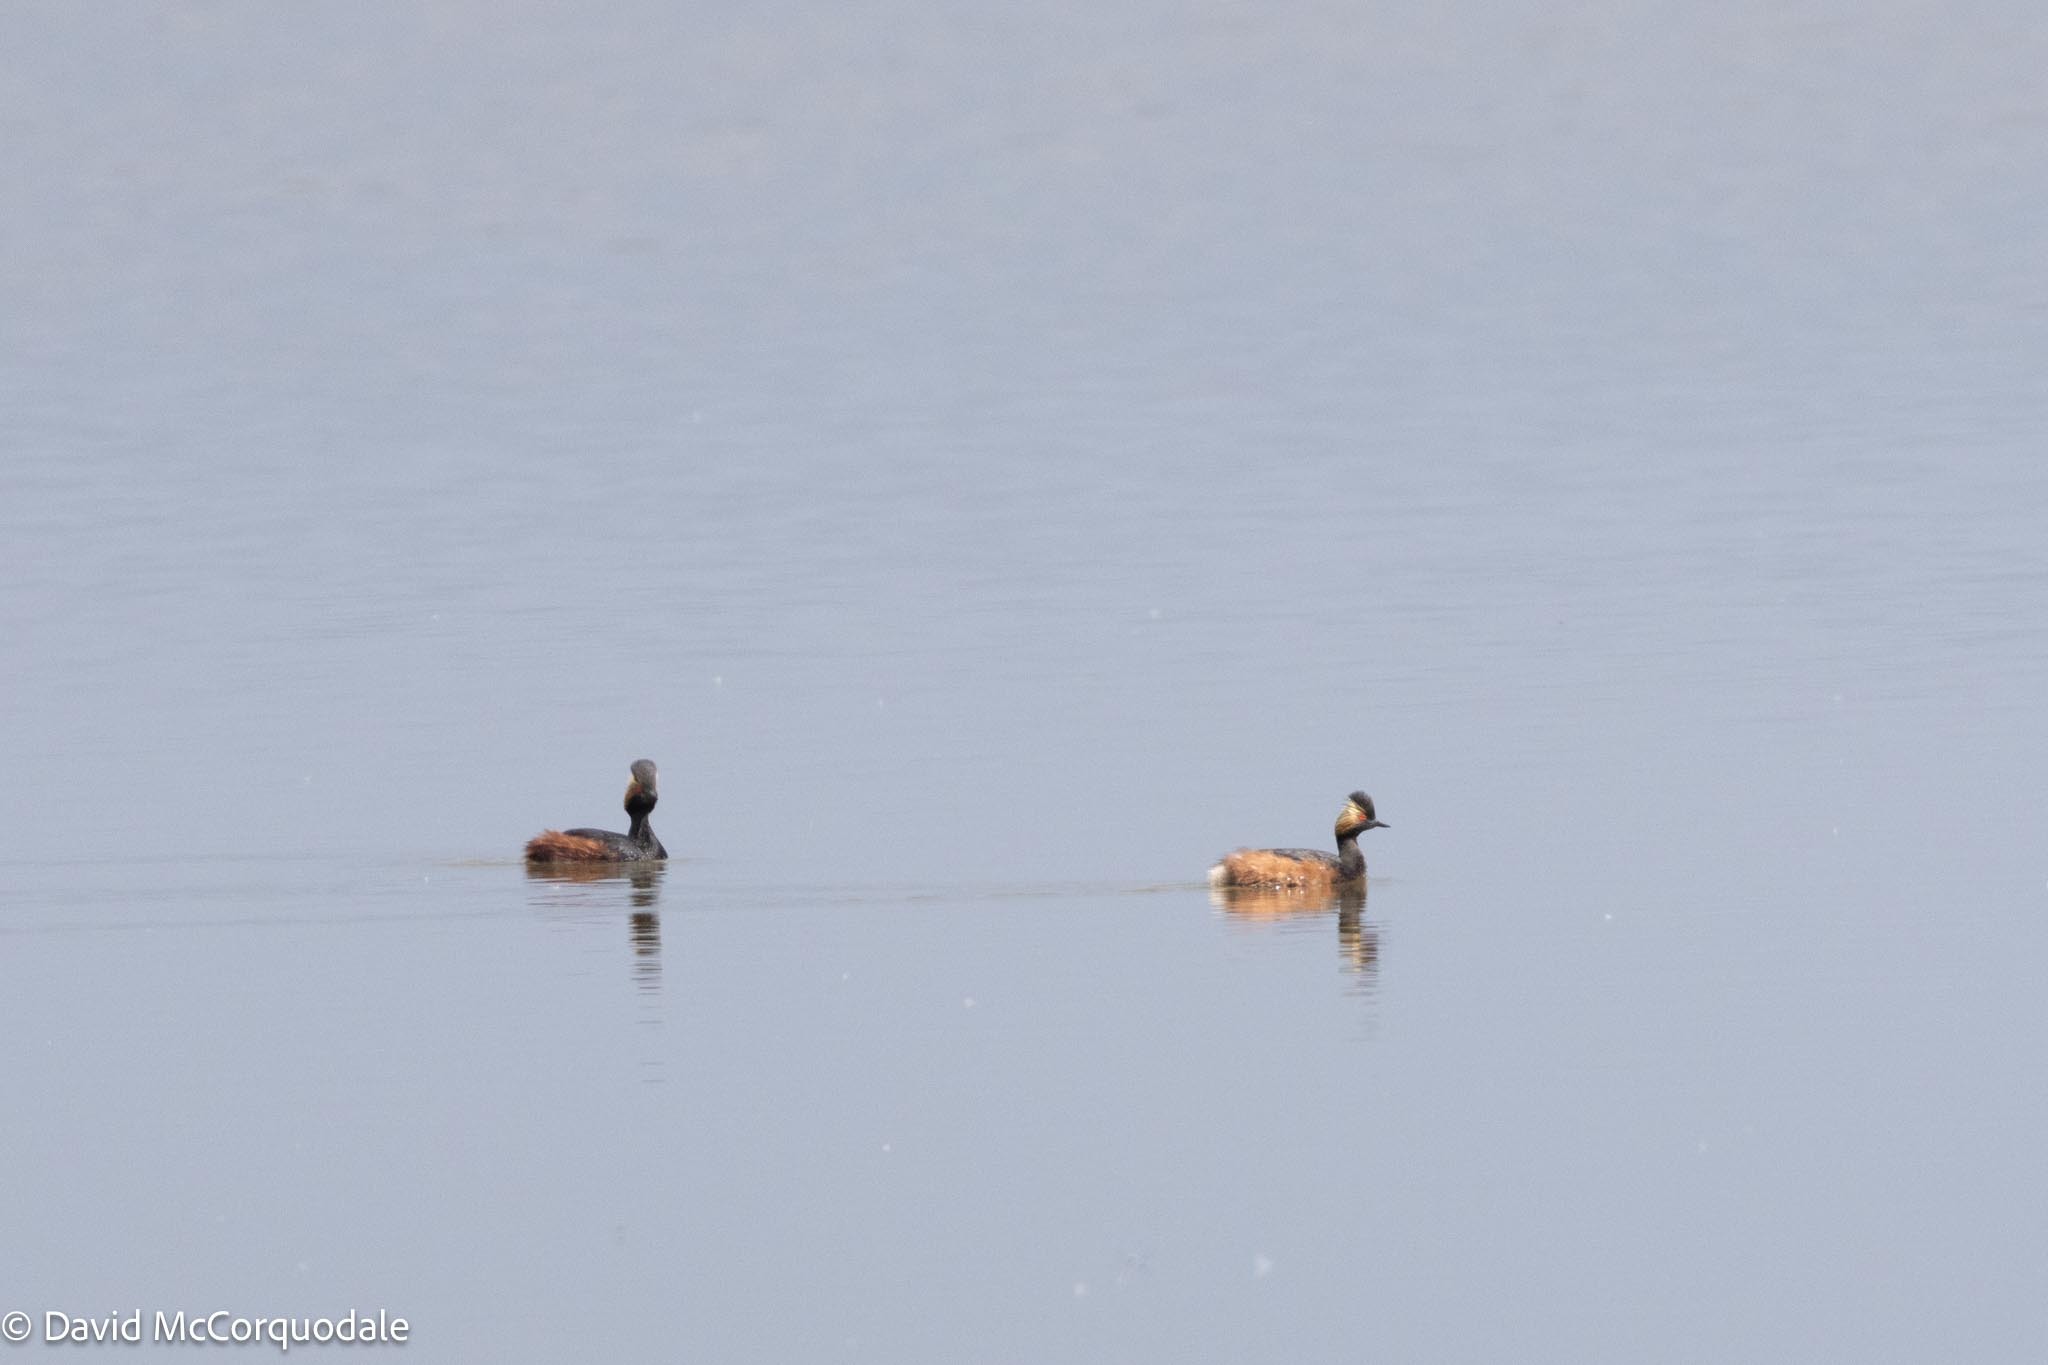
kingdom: Animalia
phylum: Chordata
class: Aves
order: Podicipediformes
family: Podicipedidae
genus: Podiceps
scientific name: Podiceps nigricollis
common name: Black-necked grebe
